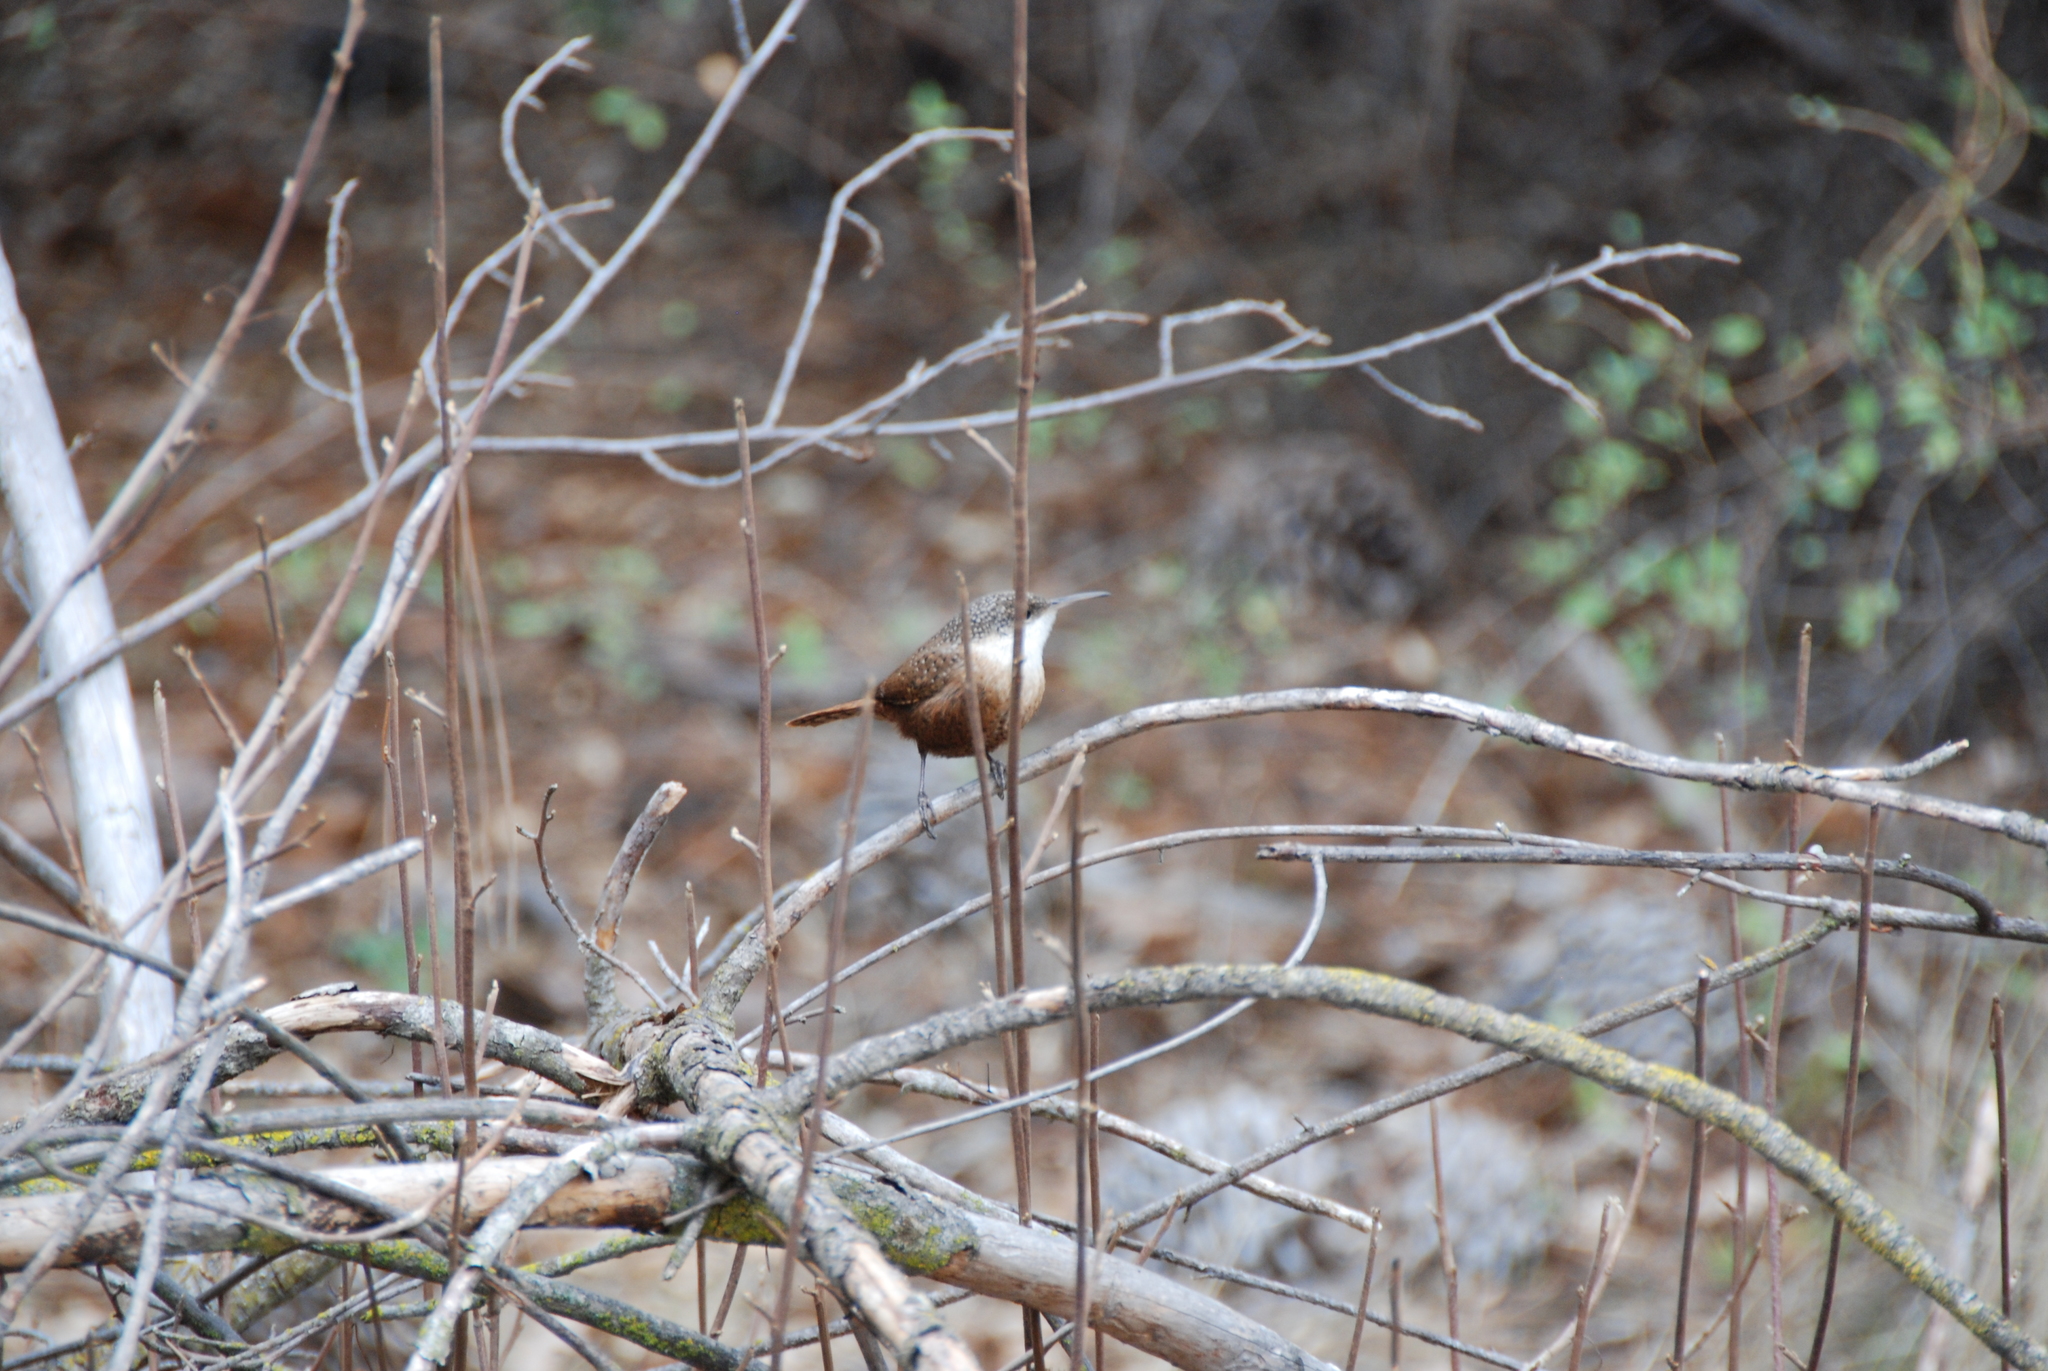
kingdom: Animalia
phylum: Chordata
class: Aves
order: Passeriformes
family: Troglodytidae
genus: Catherpes
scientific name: Catherpes mexicanus
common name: Canyon wren
